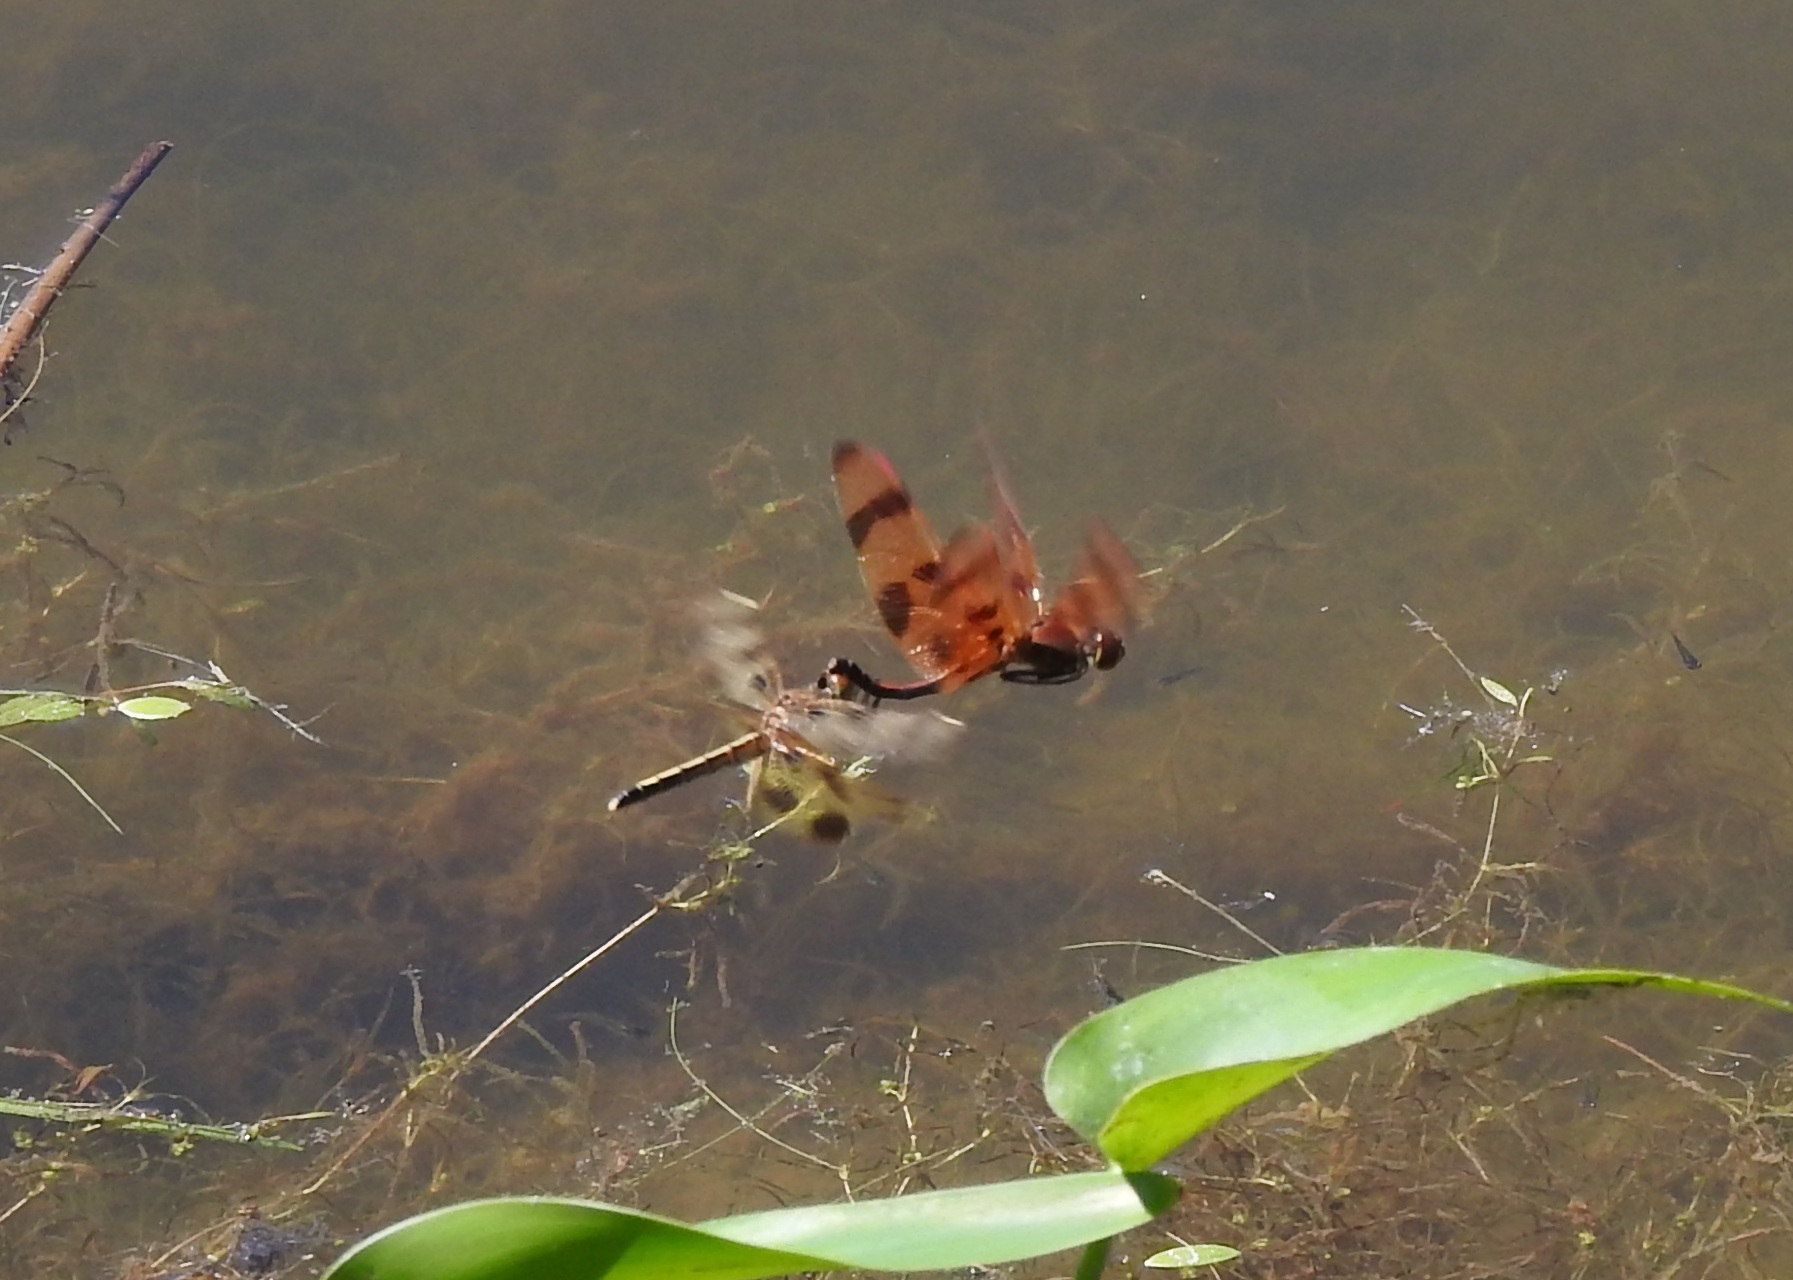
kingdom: Animalia
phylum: Arthropoda
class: Insecta
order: Odonata
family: Libellulidae
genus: Celithemis
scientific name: Celithemis eponina
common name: Halloween pennant
